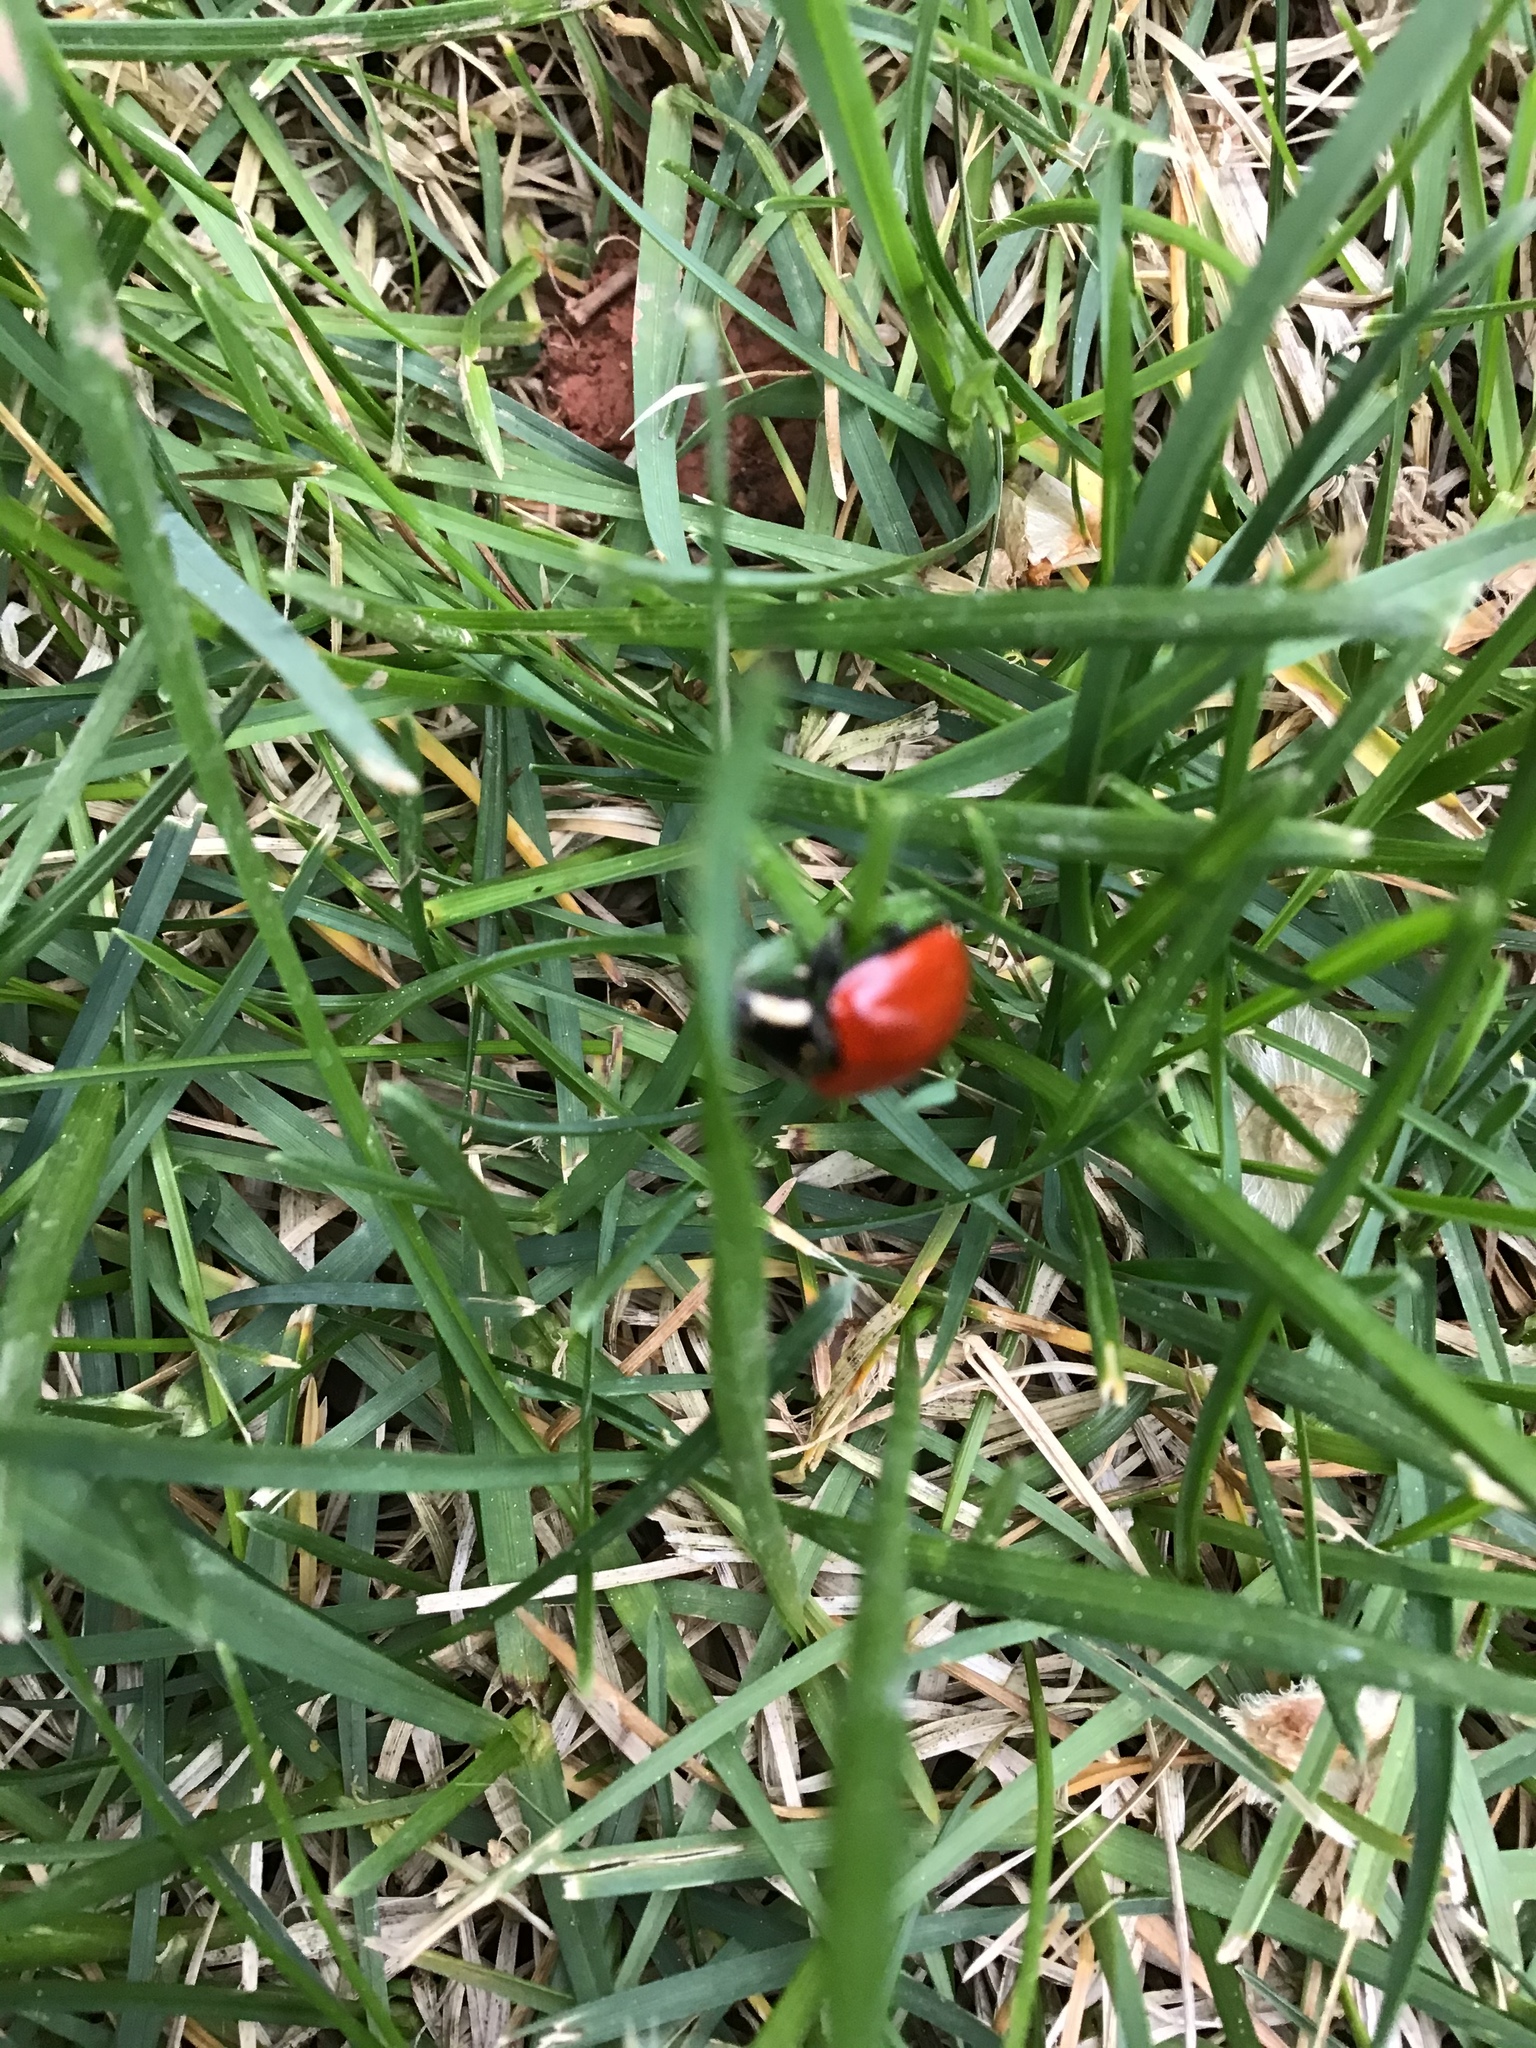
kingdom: Animalia
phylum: Arthropoda
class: Insecta
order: Coleoptera
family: Coccinellidae
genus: Anatis
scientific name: Anatis lecontei
